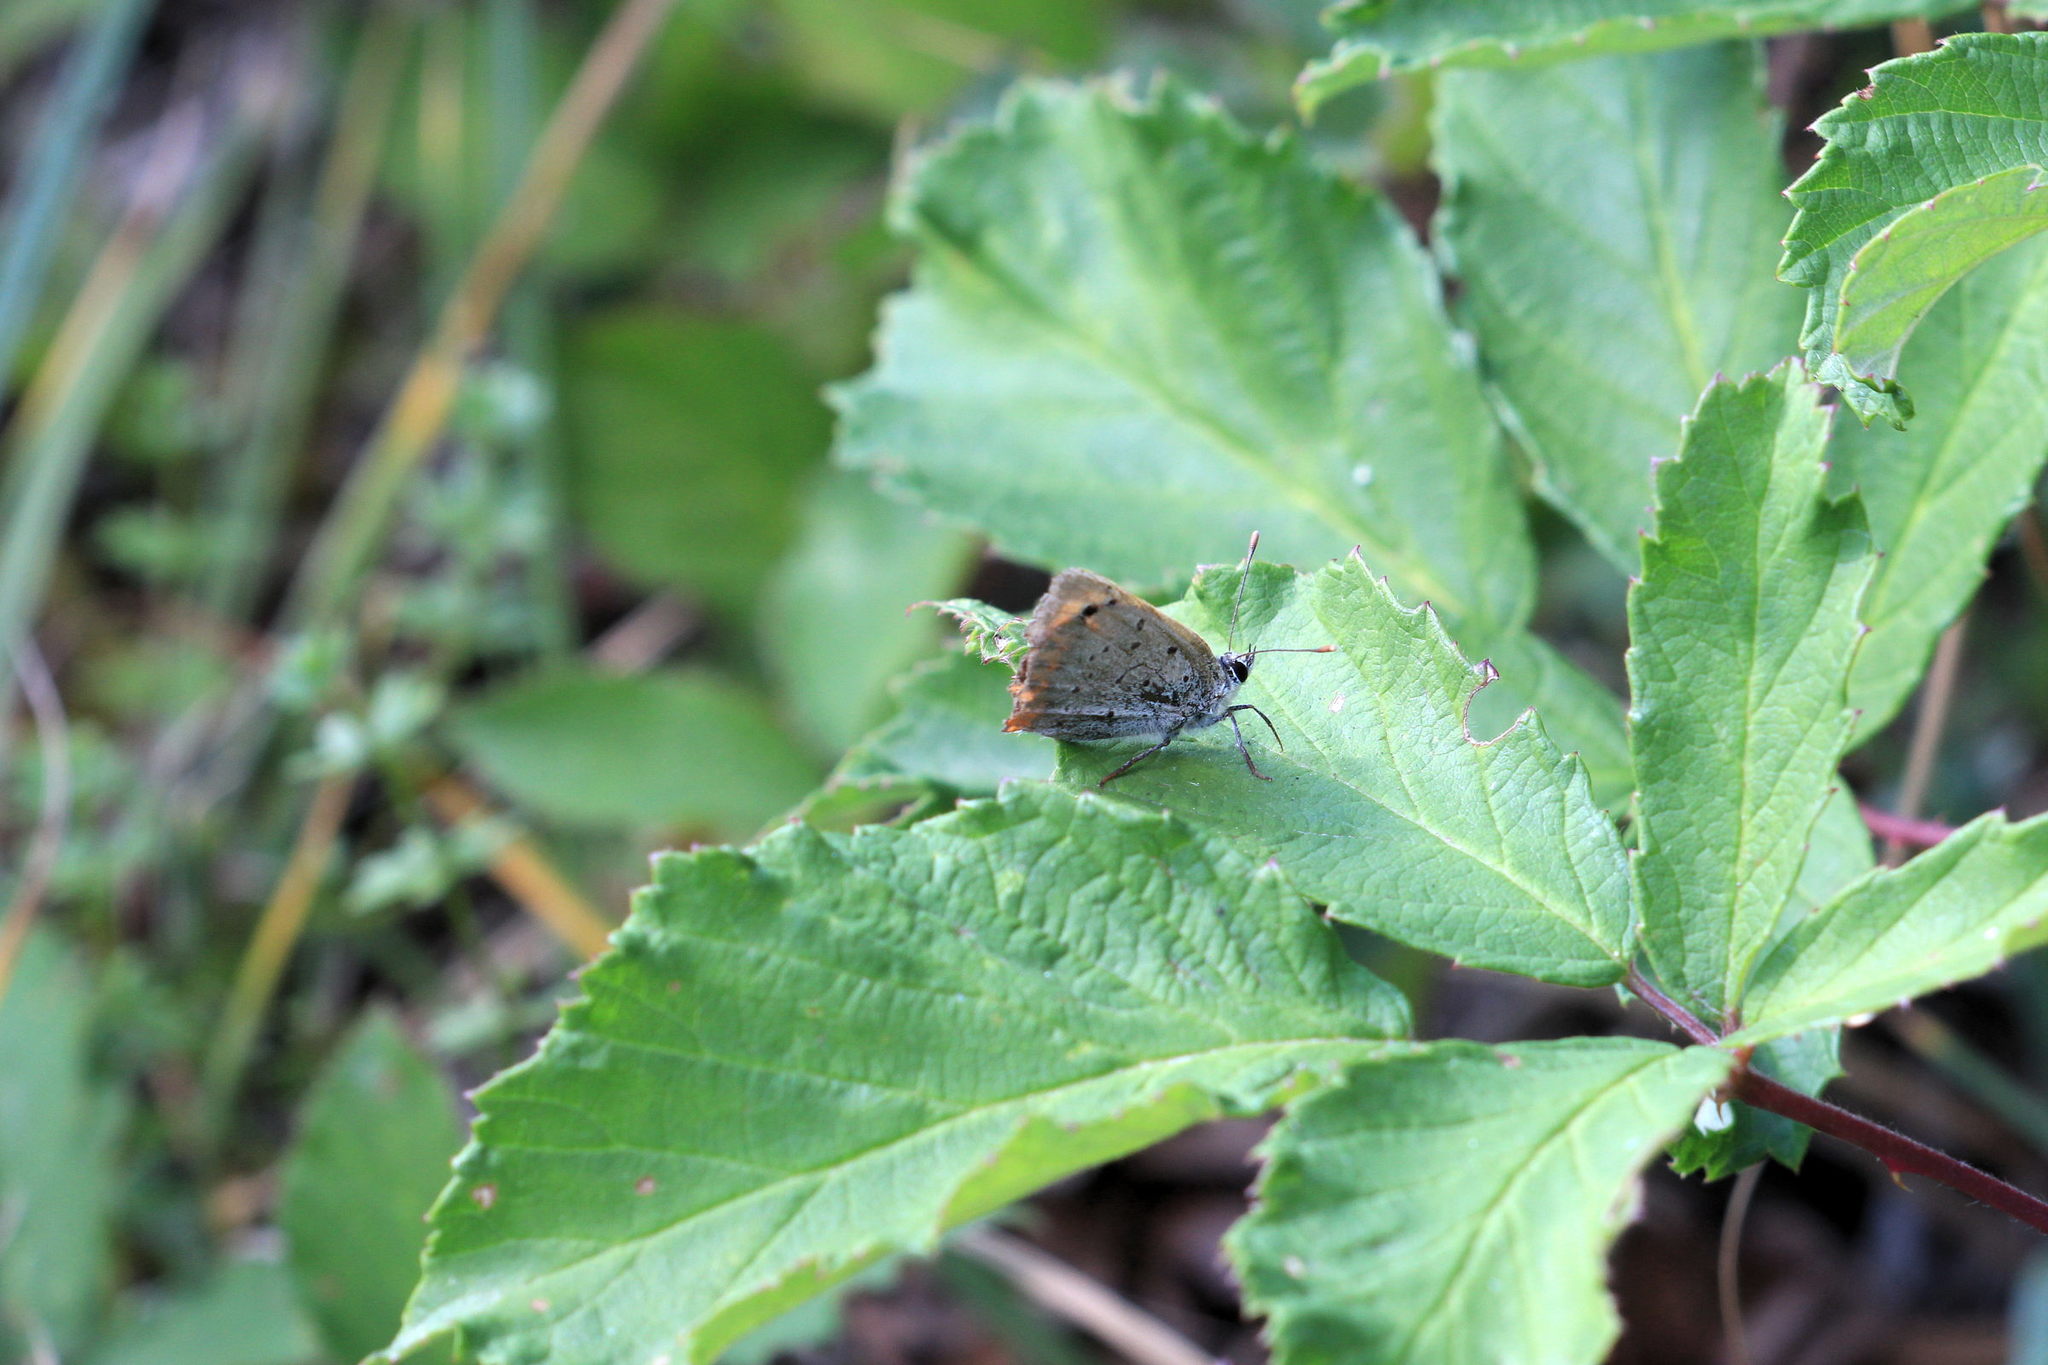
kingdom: Animalia
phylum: Arthropoda
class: Insecta
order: Lepidoptera
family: Lycaenidae
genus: Lycaena
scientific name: Lycaena phlaeas
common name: Small copper
